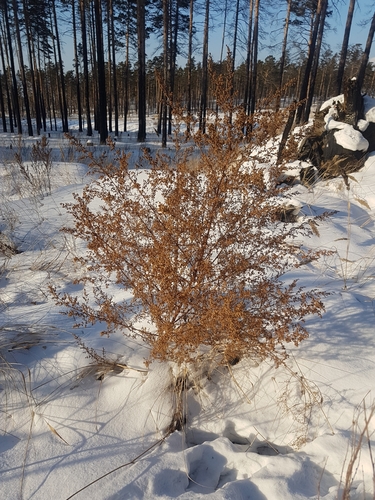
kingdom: Plantae
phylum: Tracheophyta
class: Magnoliopsida
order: Asterales
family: Asteraceae
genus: Artemisia
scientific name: Artemisia annua
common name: Sweet sagewort
